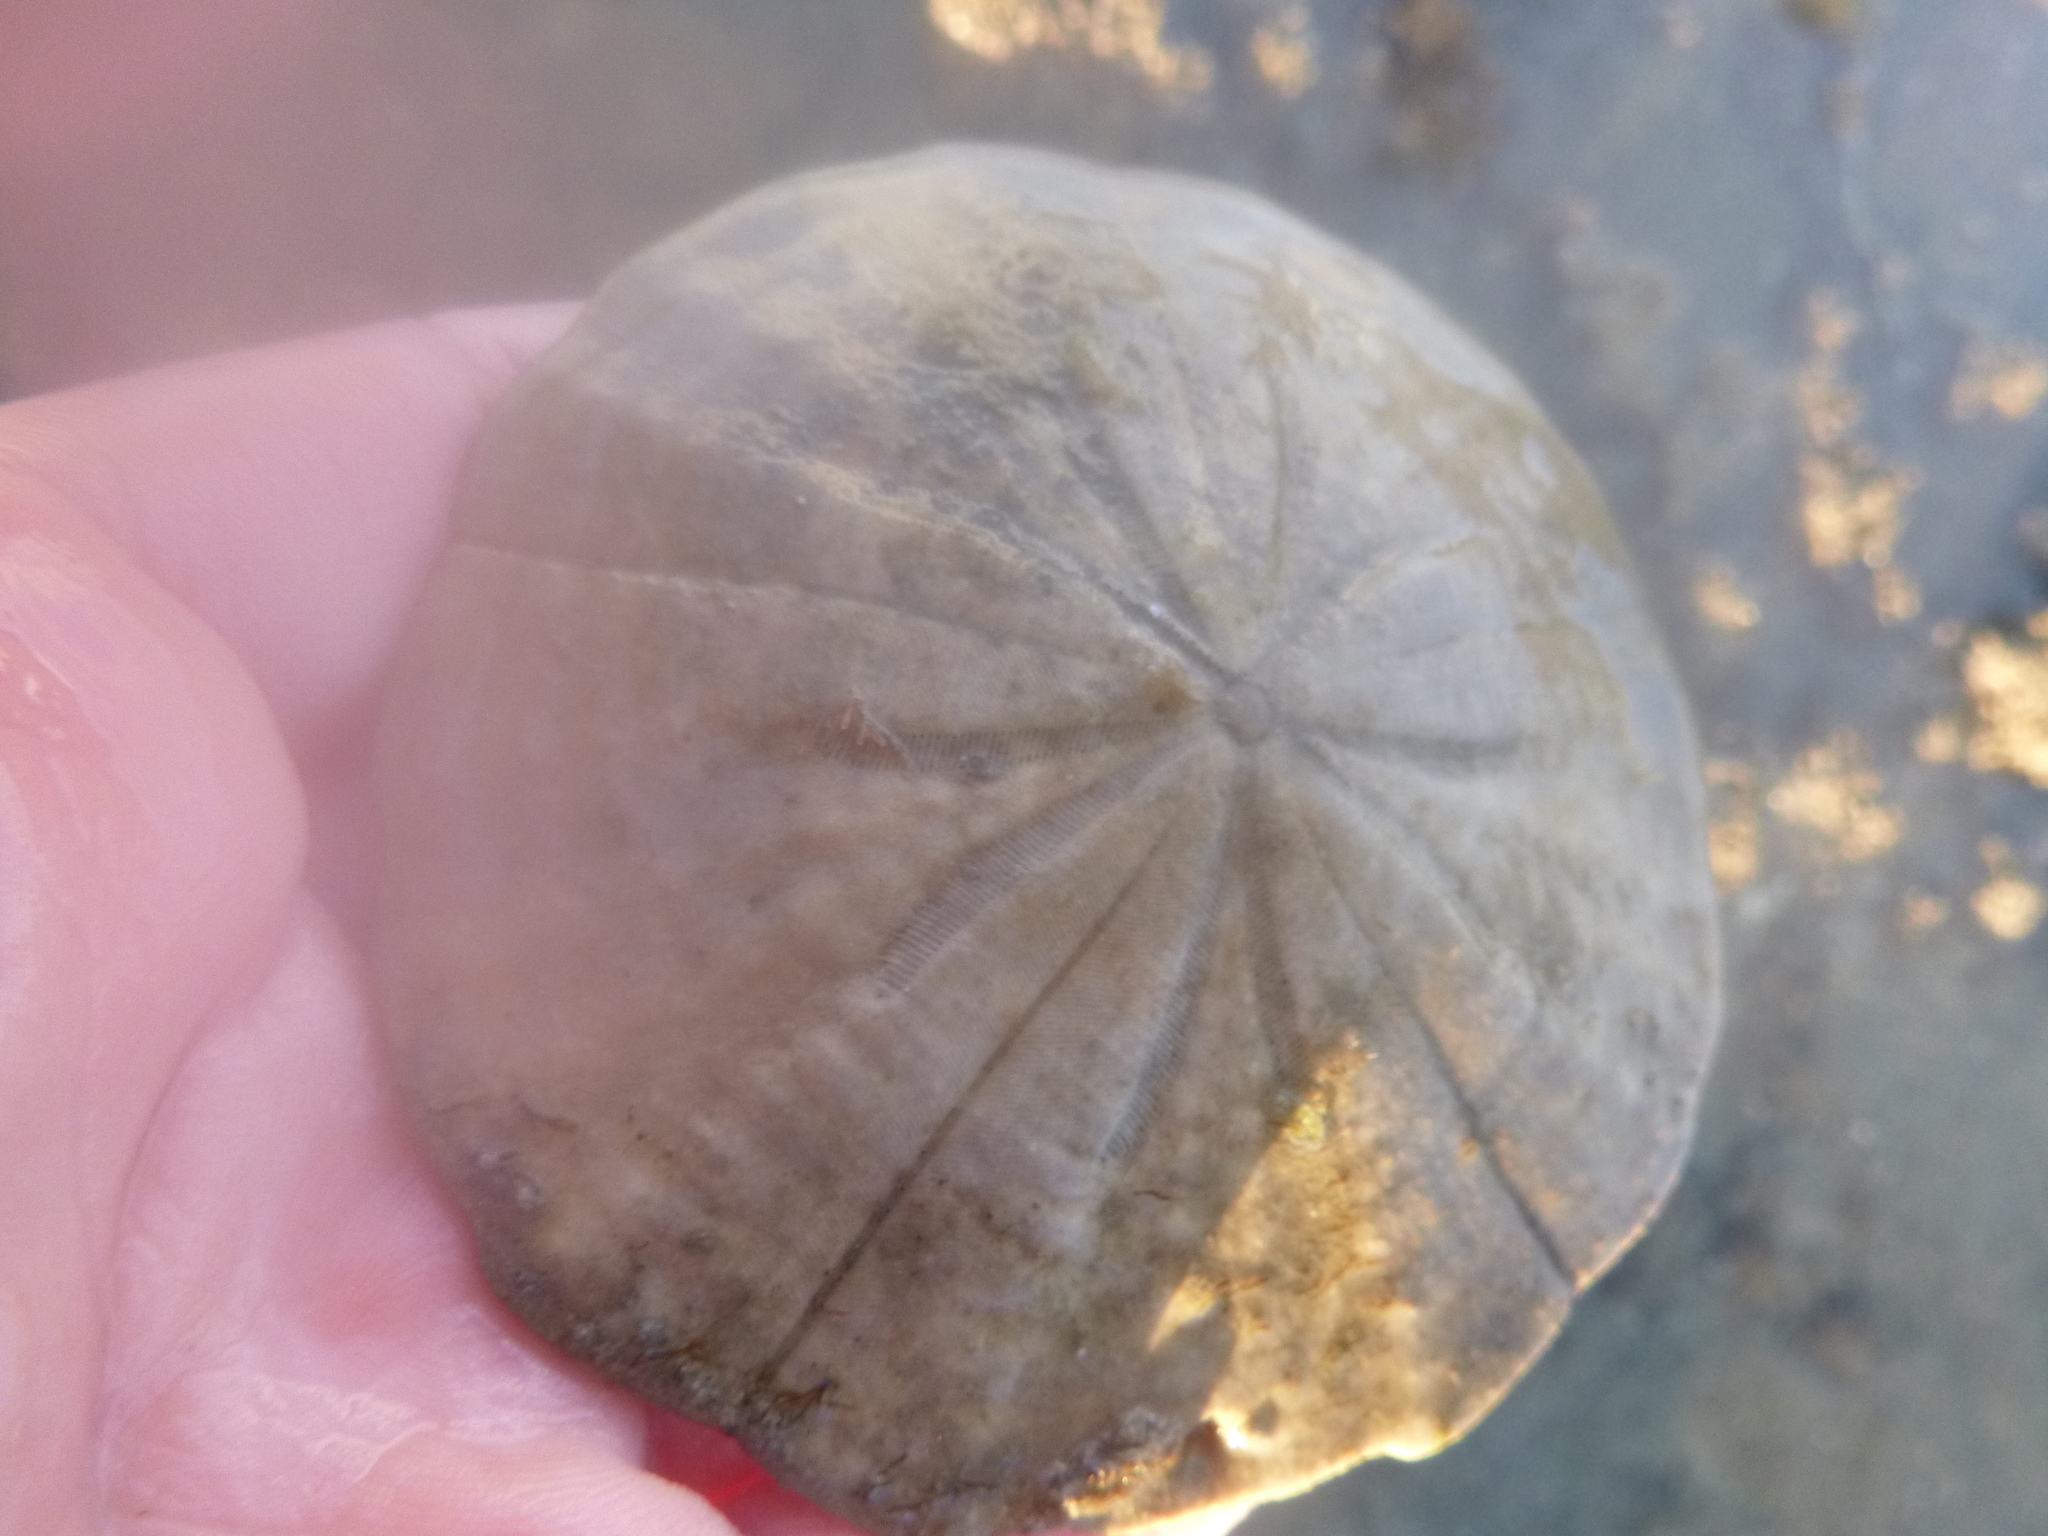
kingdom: Animalia
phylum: Echinodermata
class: Echinoidea
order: Clypeasteroida
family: Clypeasteridae
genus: Fellaster
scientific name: Fellaster zelandiae
